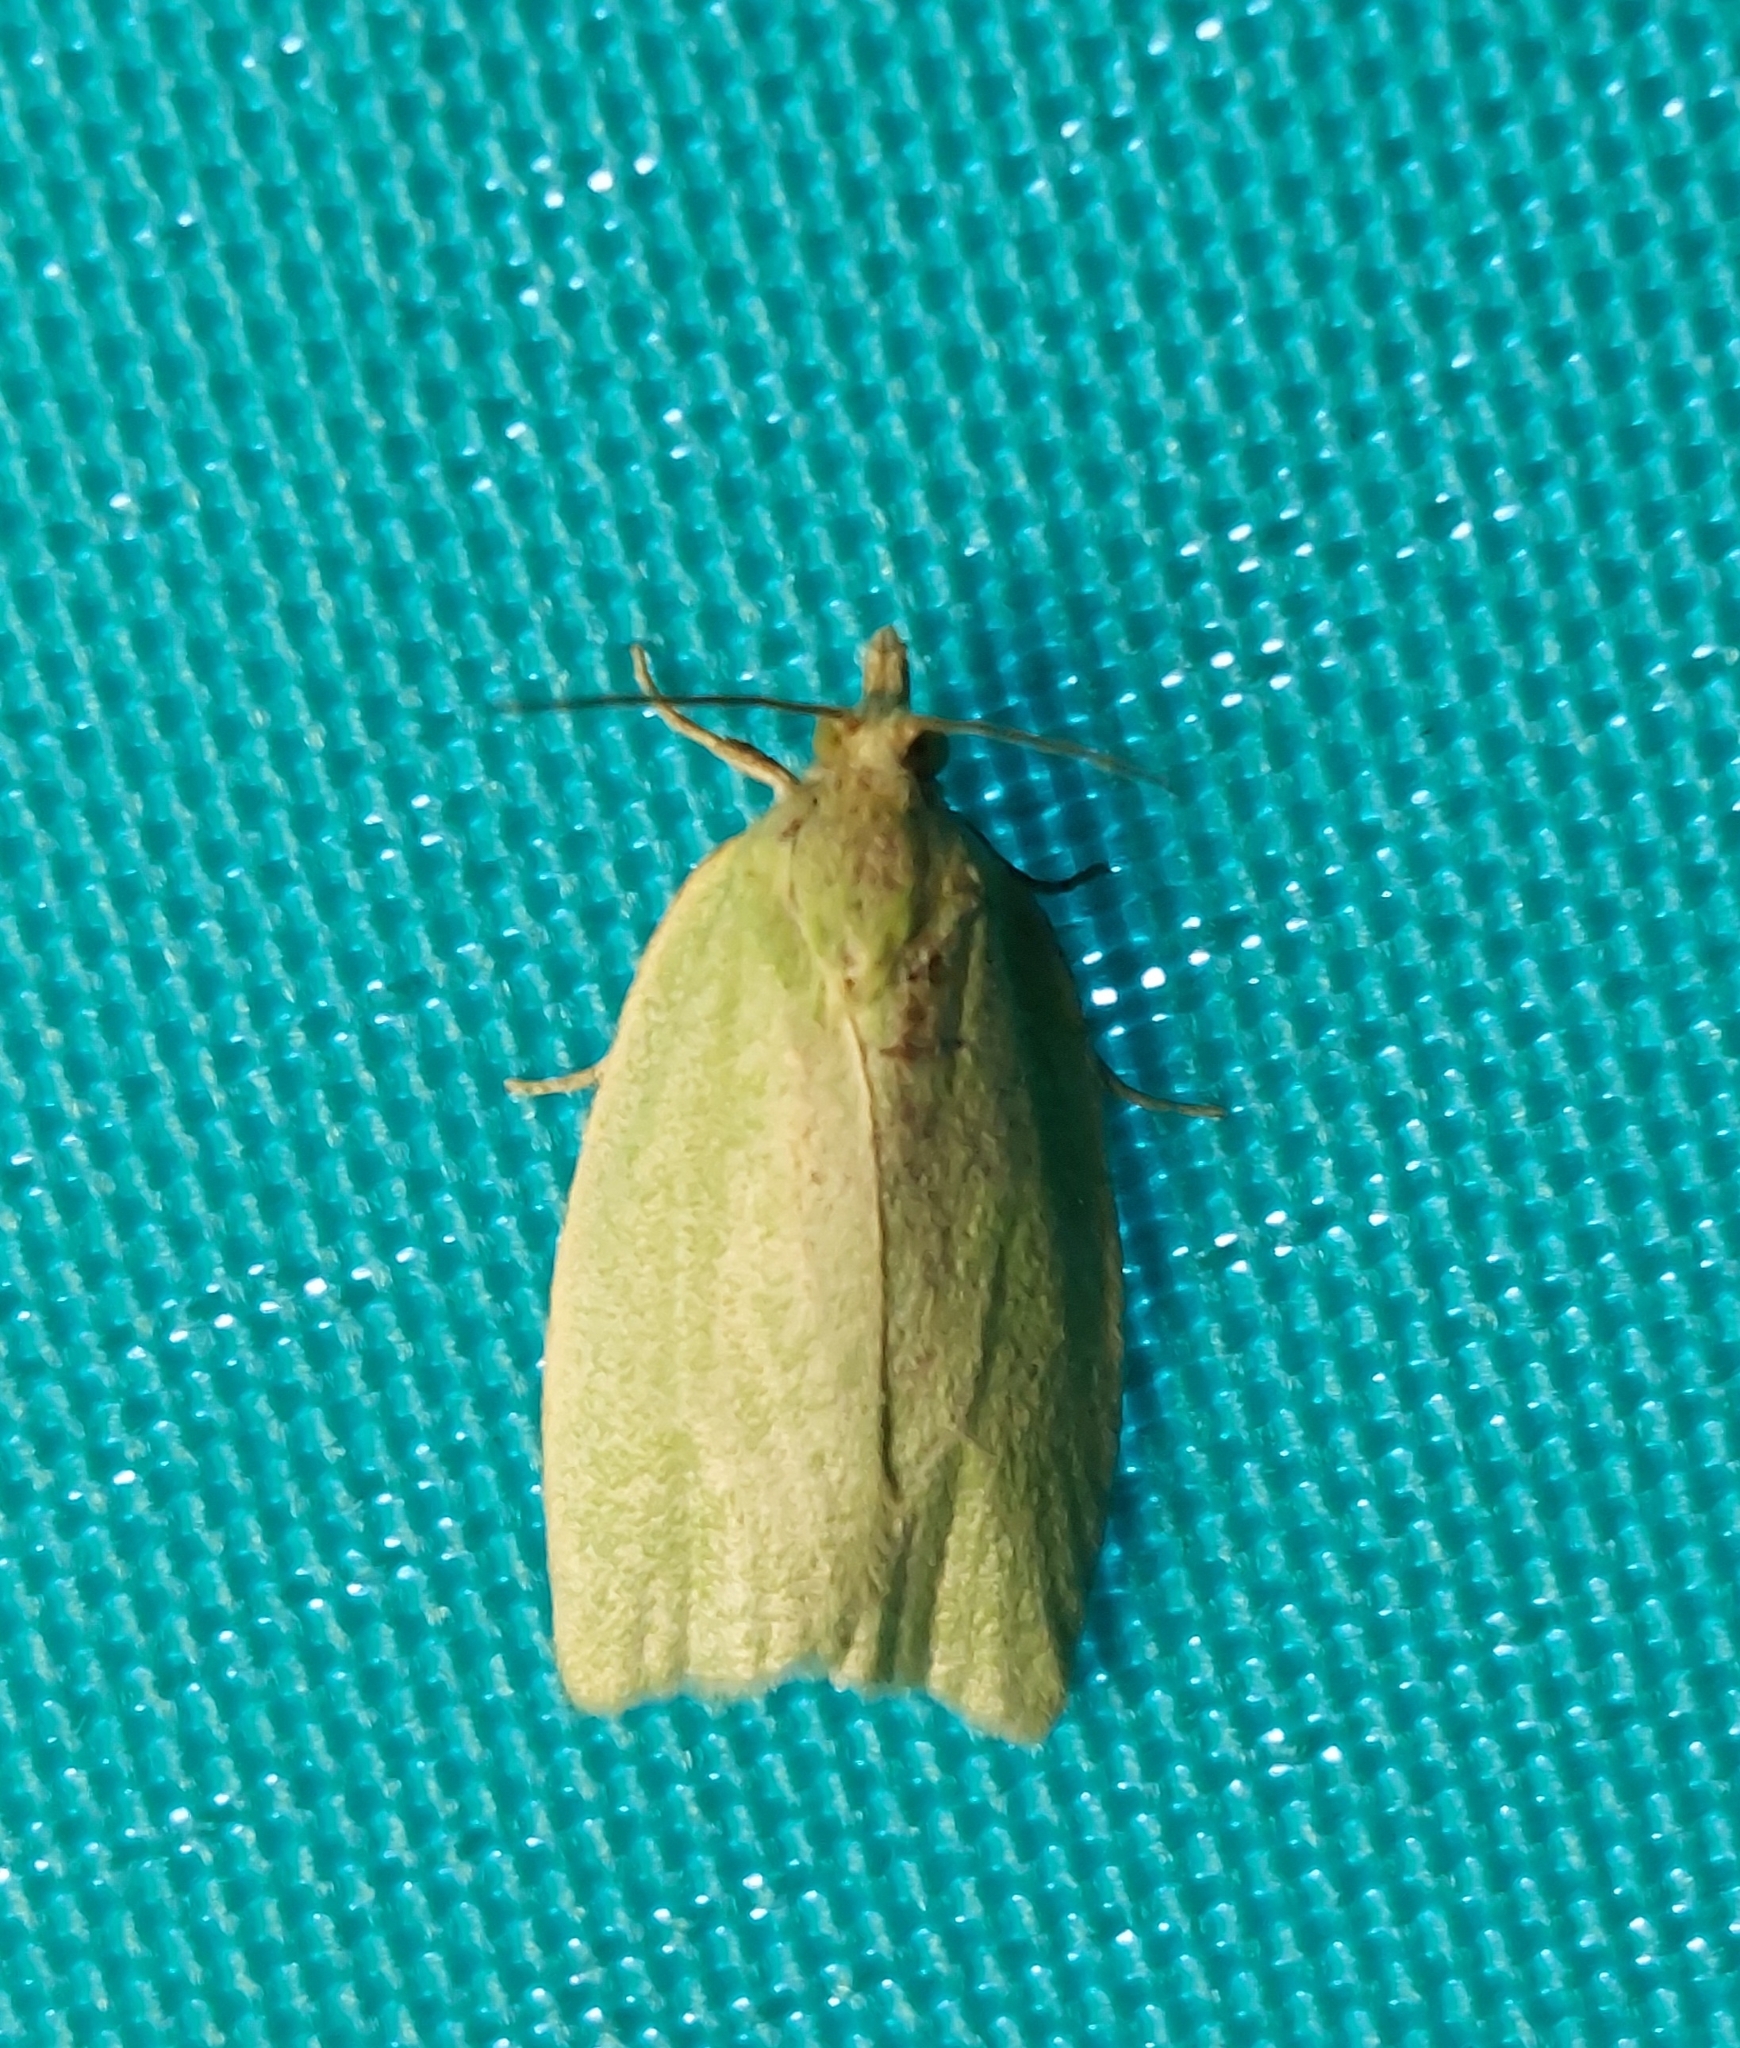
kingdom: Animalia
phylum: Arthropoda
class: Insecta
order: Lepidoptera
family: Tortricidae
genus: Tortrix
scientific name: Tortrix viridana
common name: Green oak tortrix
